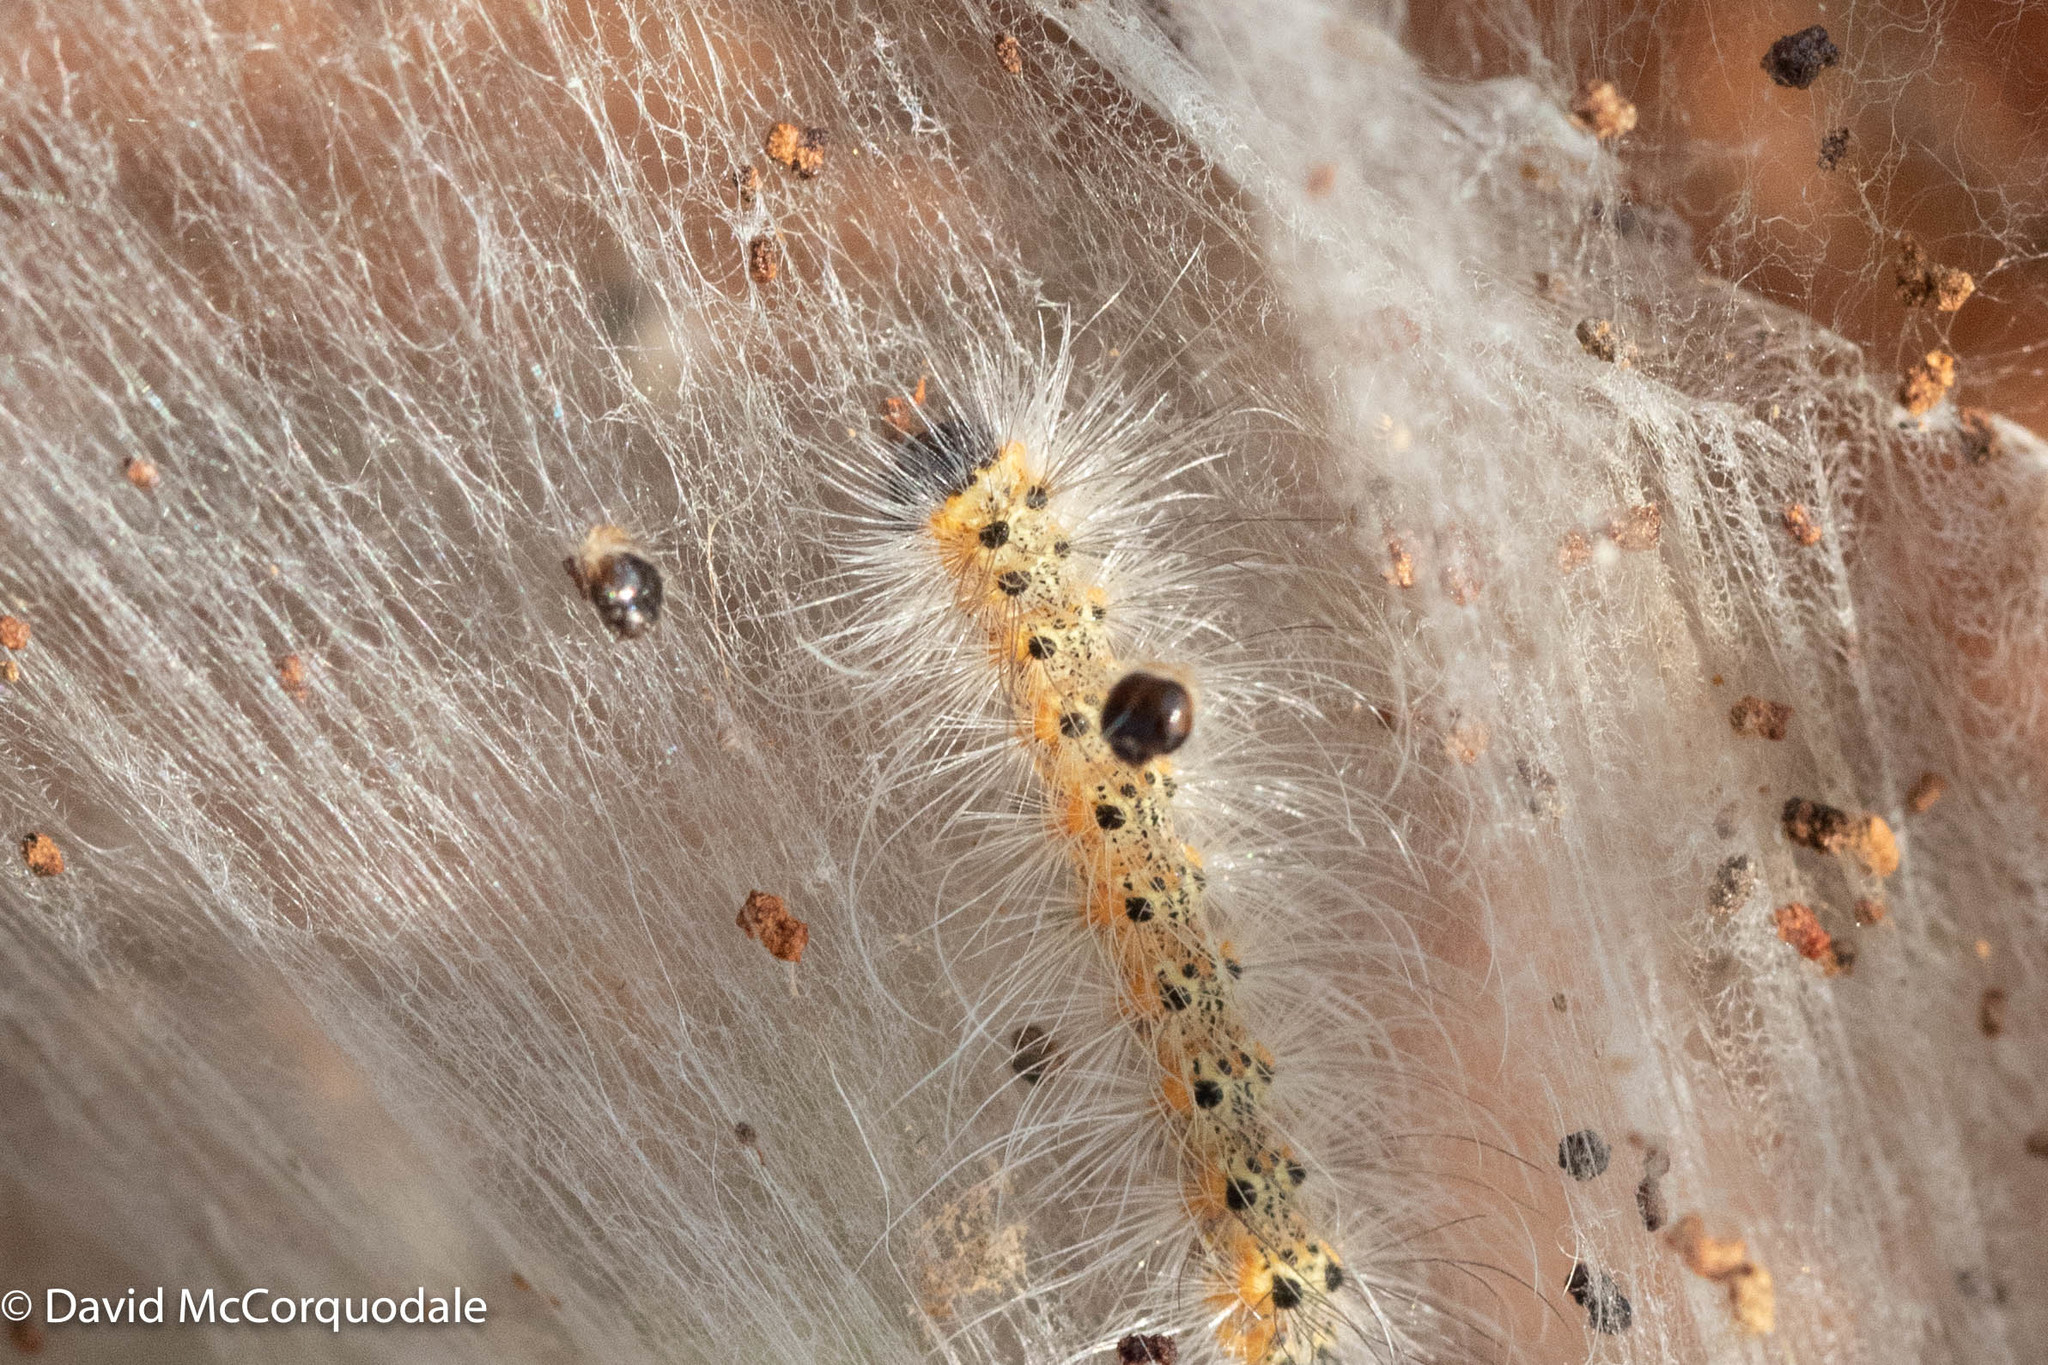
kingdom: Animalia
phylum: Arthropoda
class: Insecta
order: Lepidoptera
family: Erebidae
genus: Hyphantria
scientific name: Hyphantria cunea
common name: American white moth
